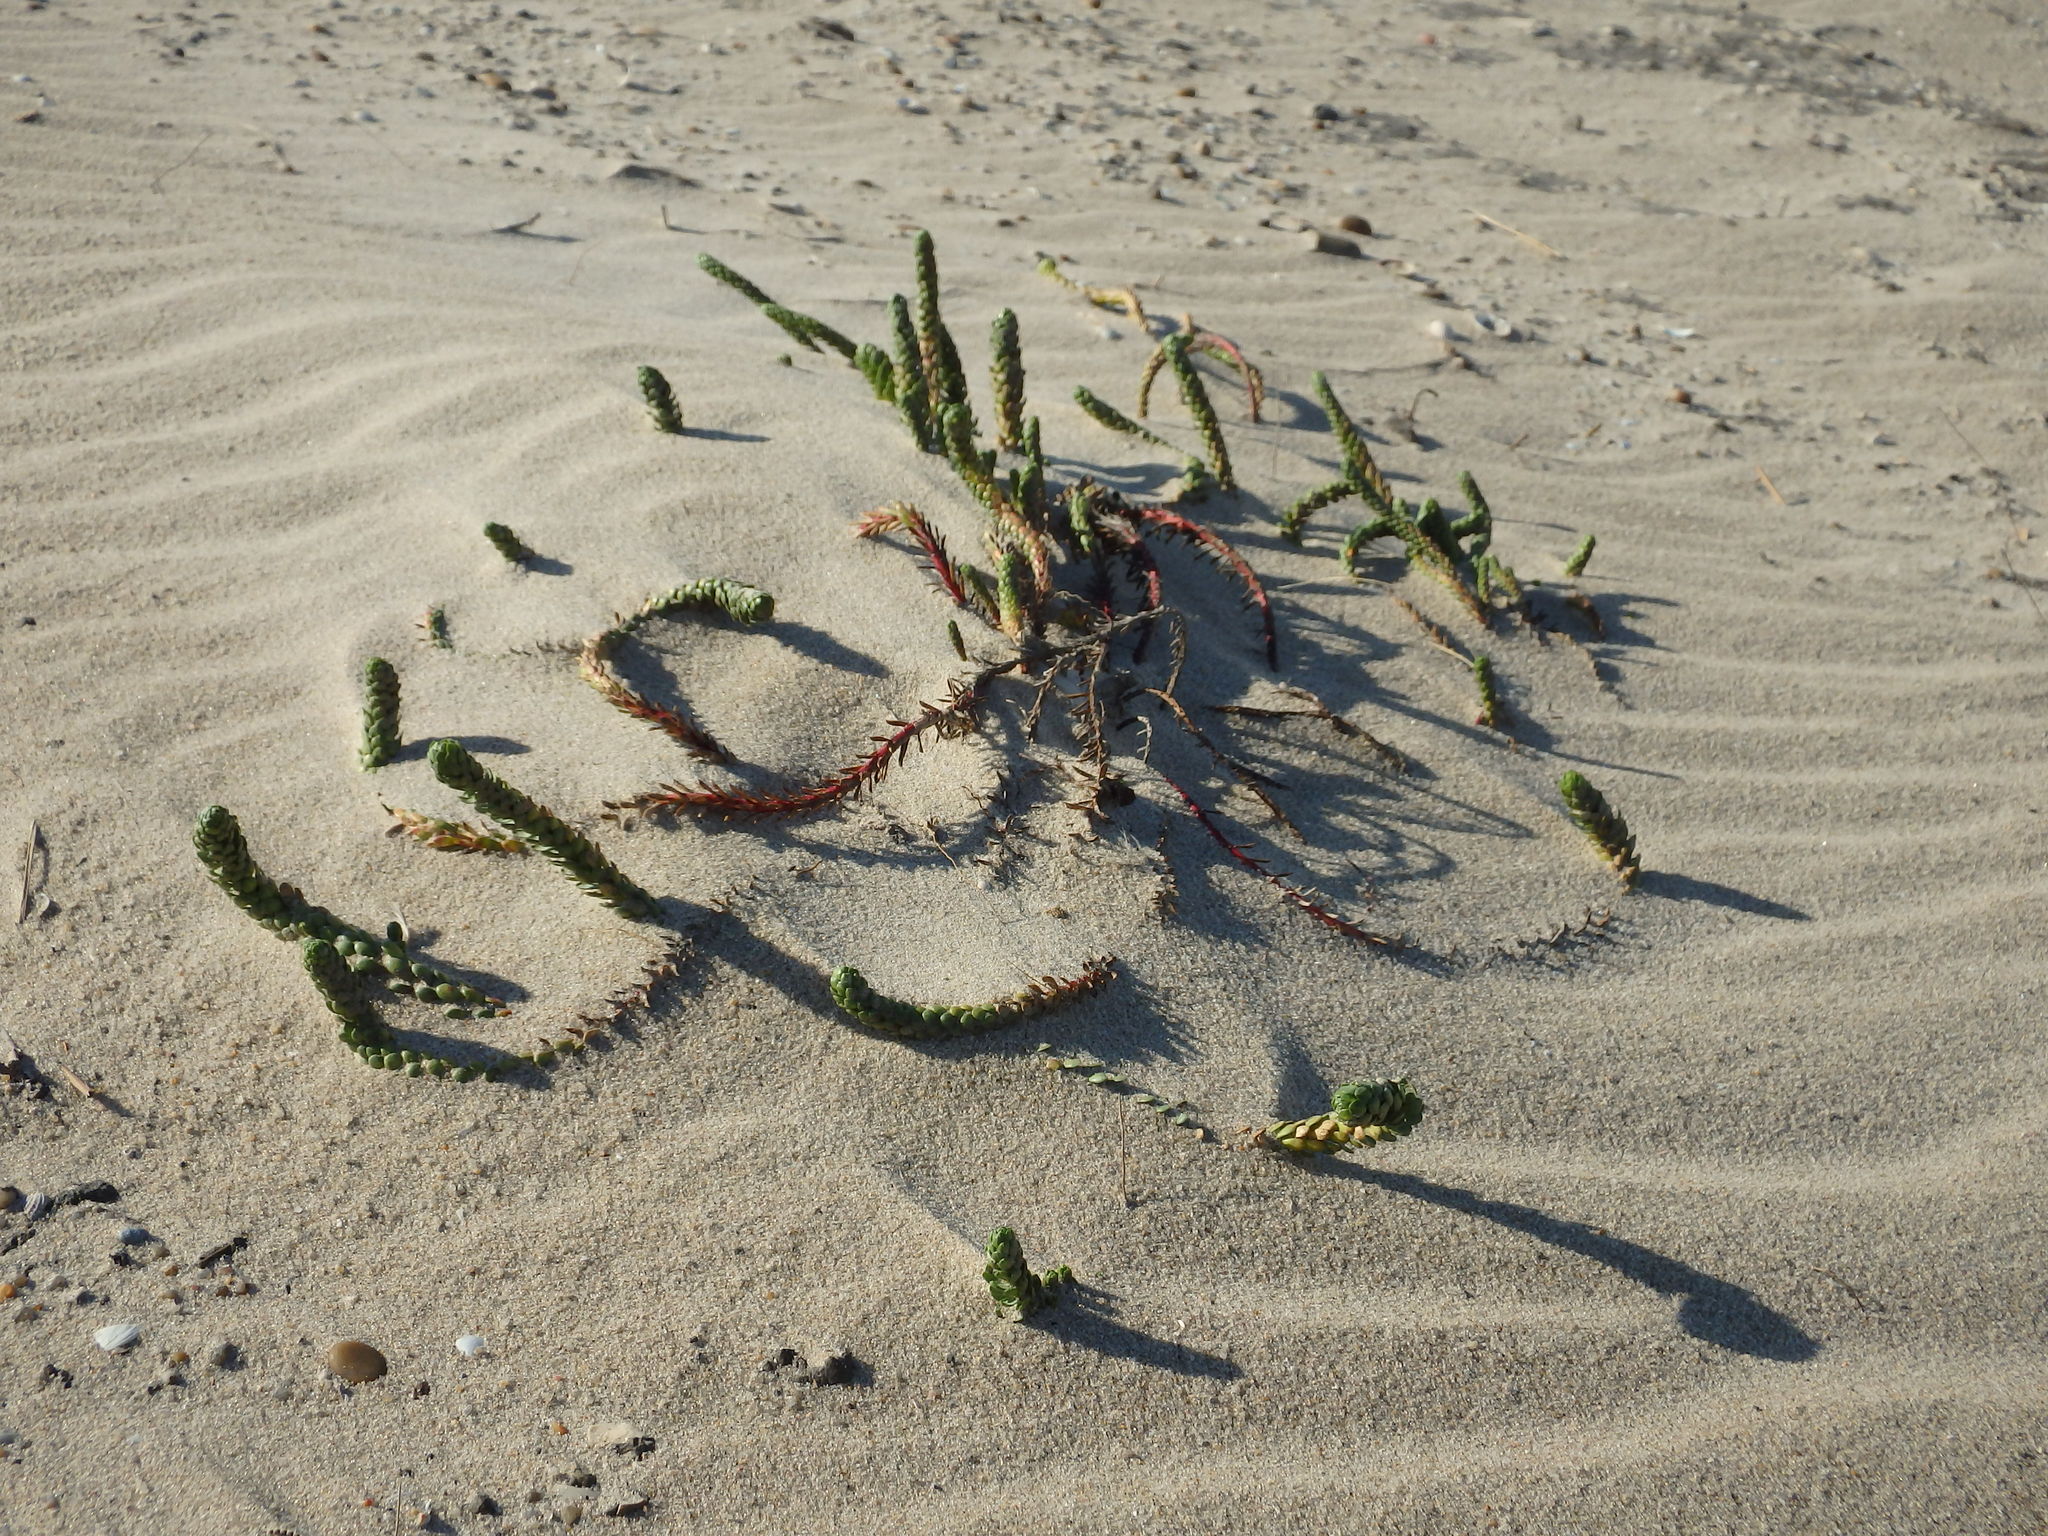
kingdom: Plantae
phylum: Tracheophyta
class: Magnoliopsida
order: Malpighiales
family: Euphorbiaceae
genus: Euphorbia
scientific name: Euphorbia paralias
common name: Sea spurge
